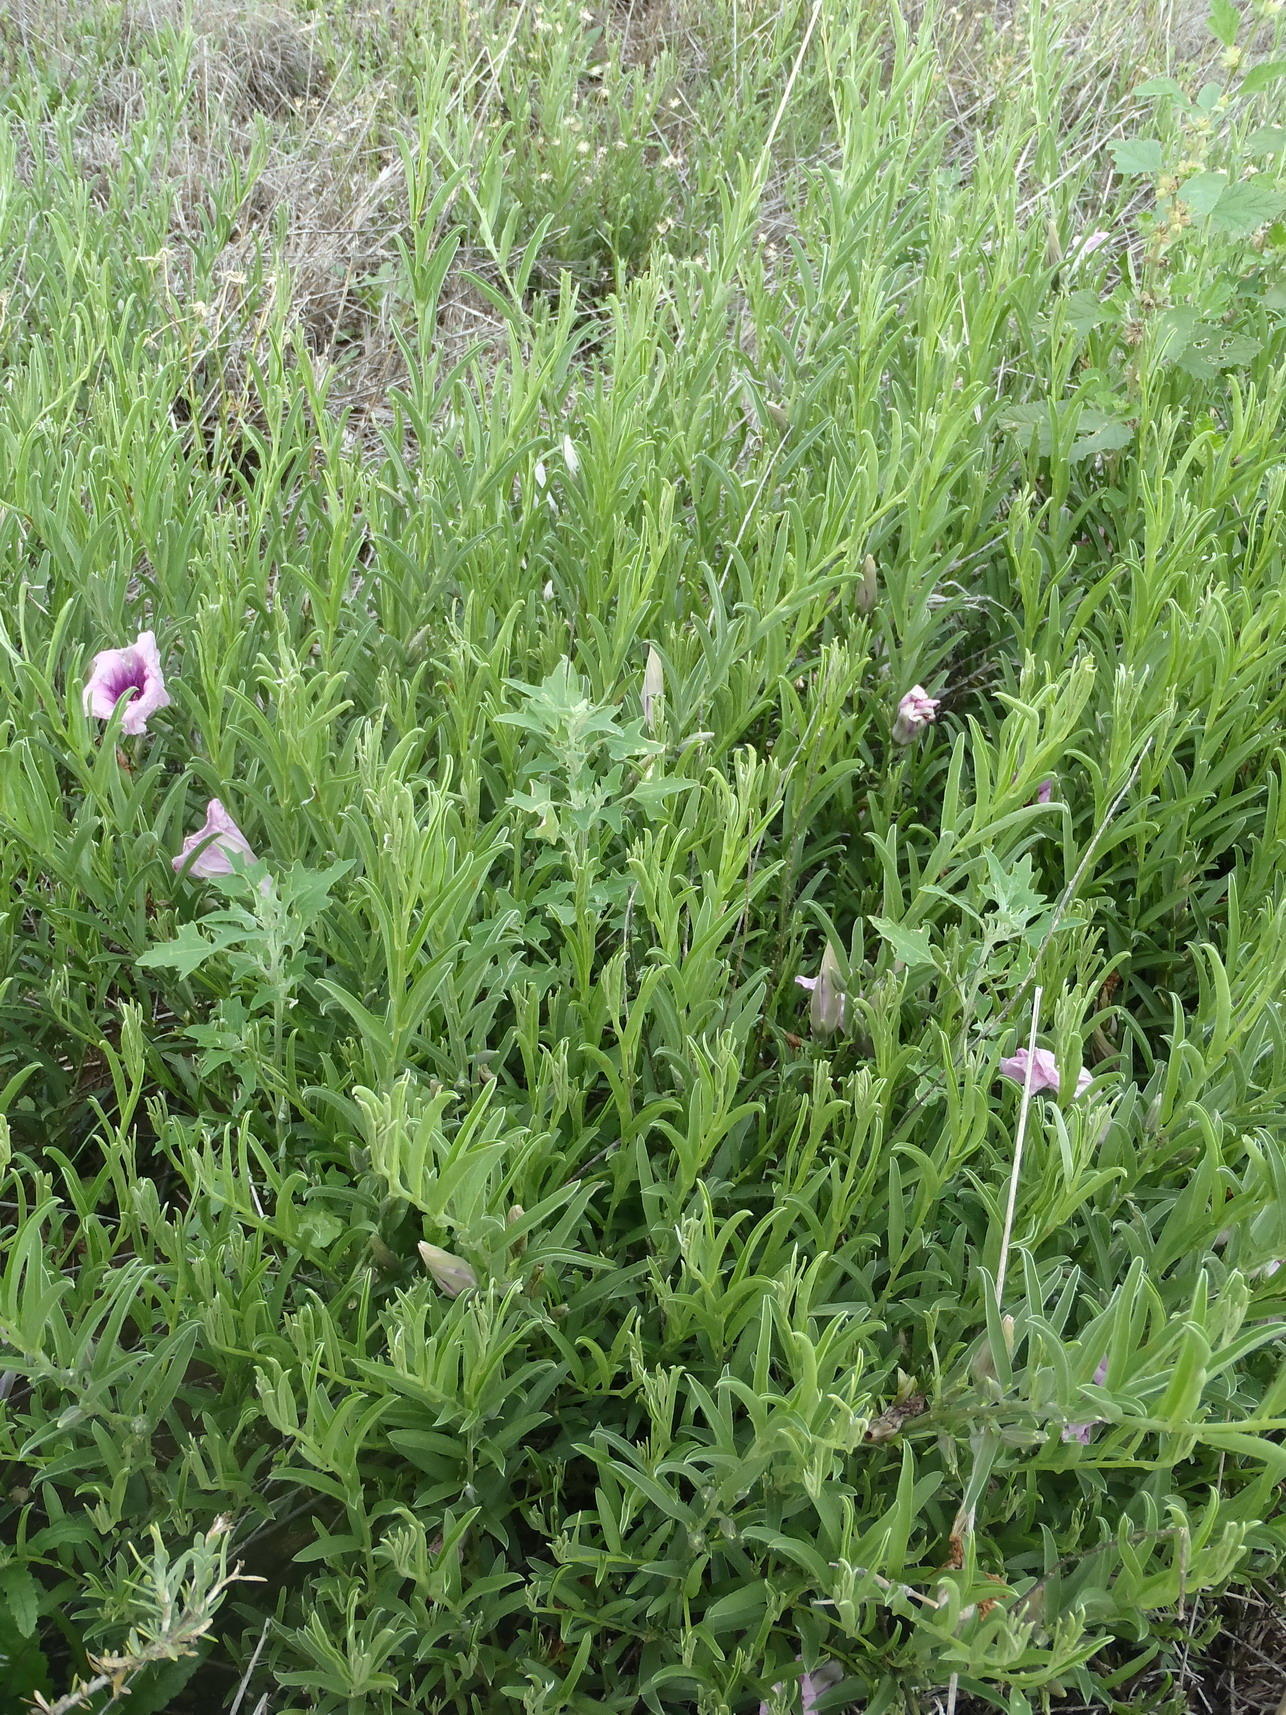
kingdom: Plantae
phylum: Tracheophyta
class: Magnoliopsida
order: Solanales
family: Convolvulaceae
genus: Ipomoea
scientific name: Ipomoea oenotheroides
